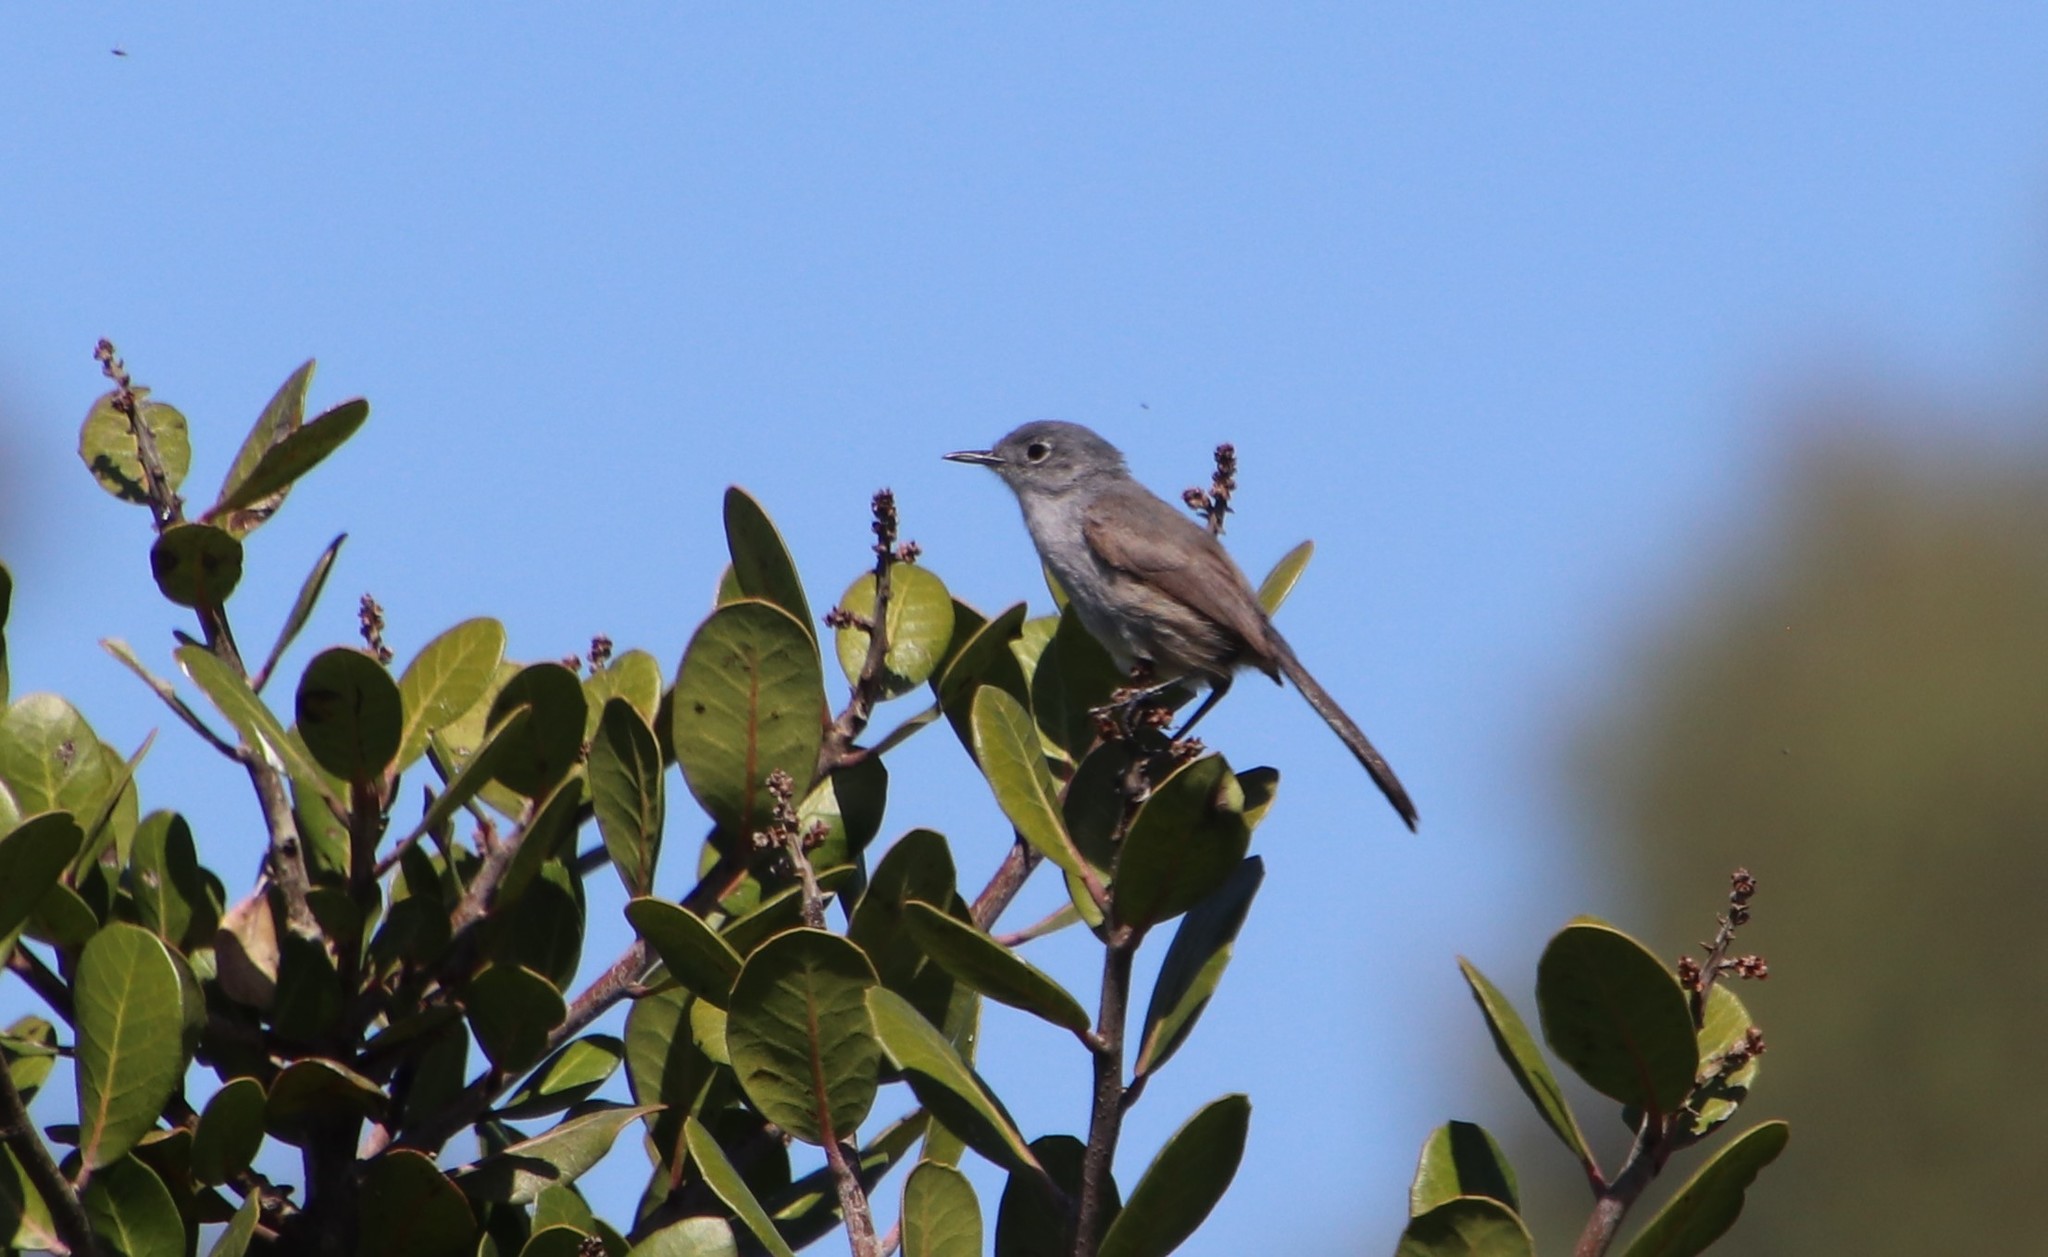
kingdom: Animalia
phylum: Chordata
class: Aves
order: Passeriformes
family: Polioptilidae
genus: Polioptila
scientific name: Polioptila californica
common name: California gnatcatcher
